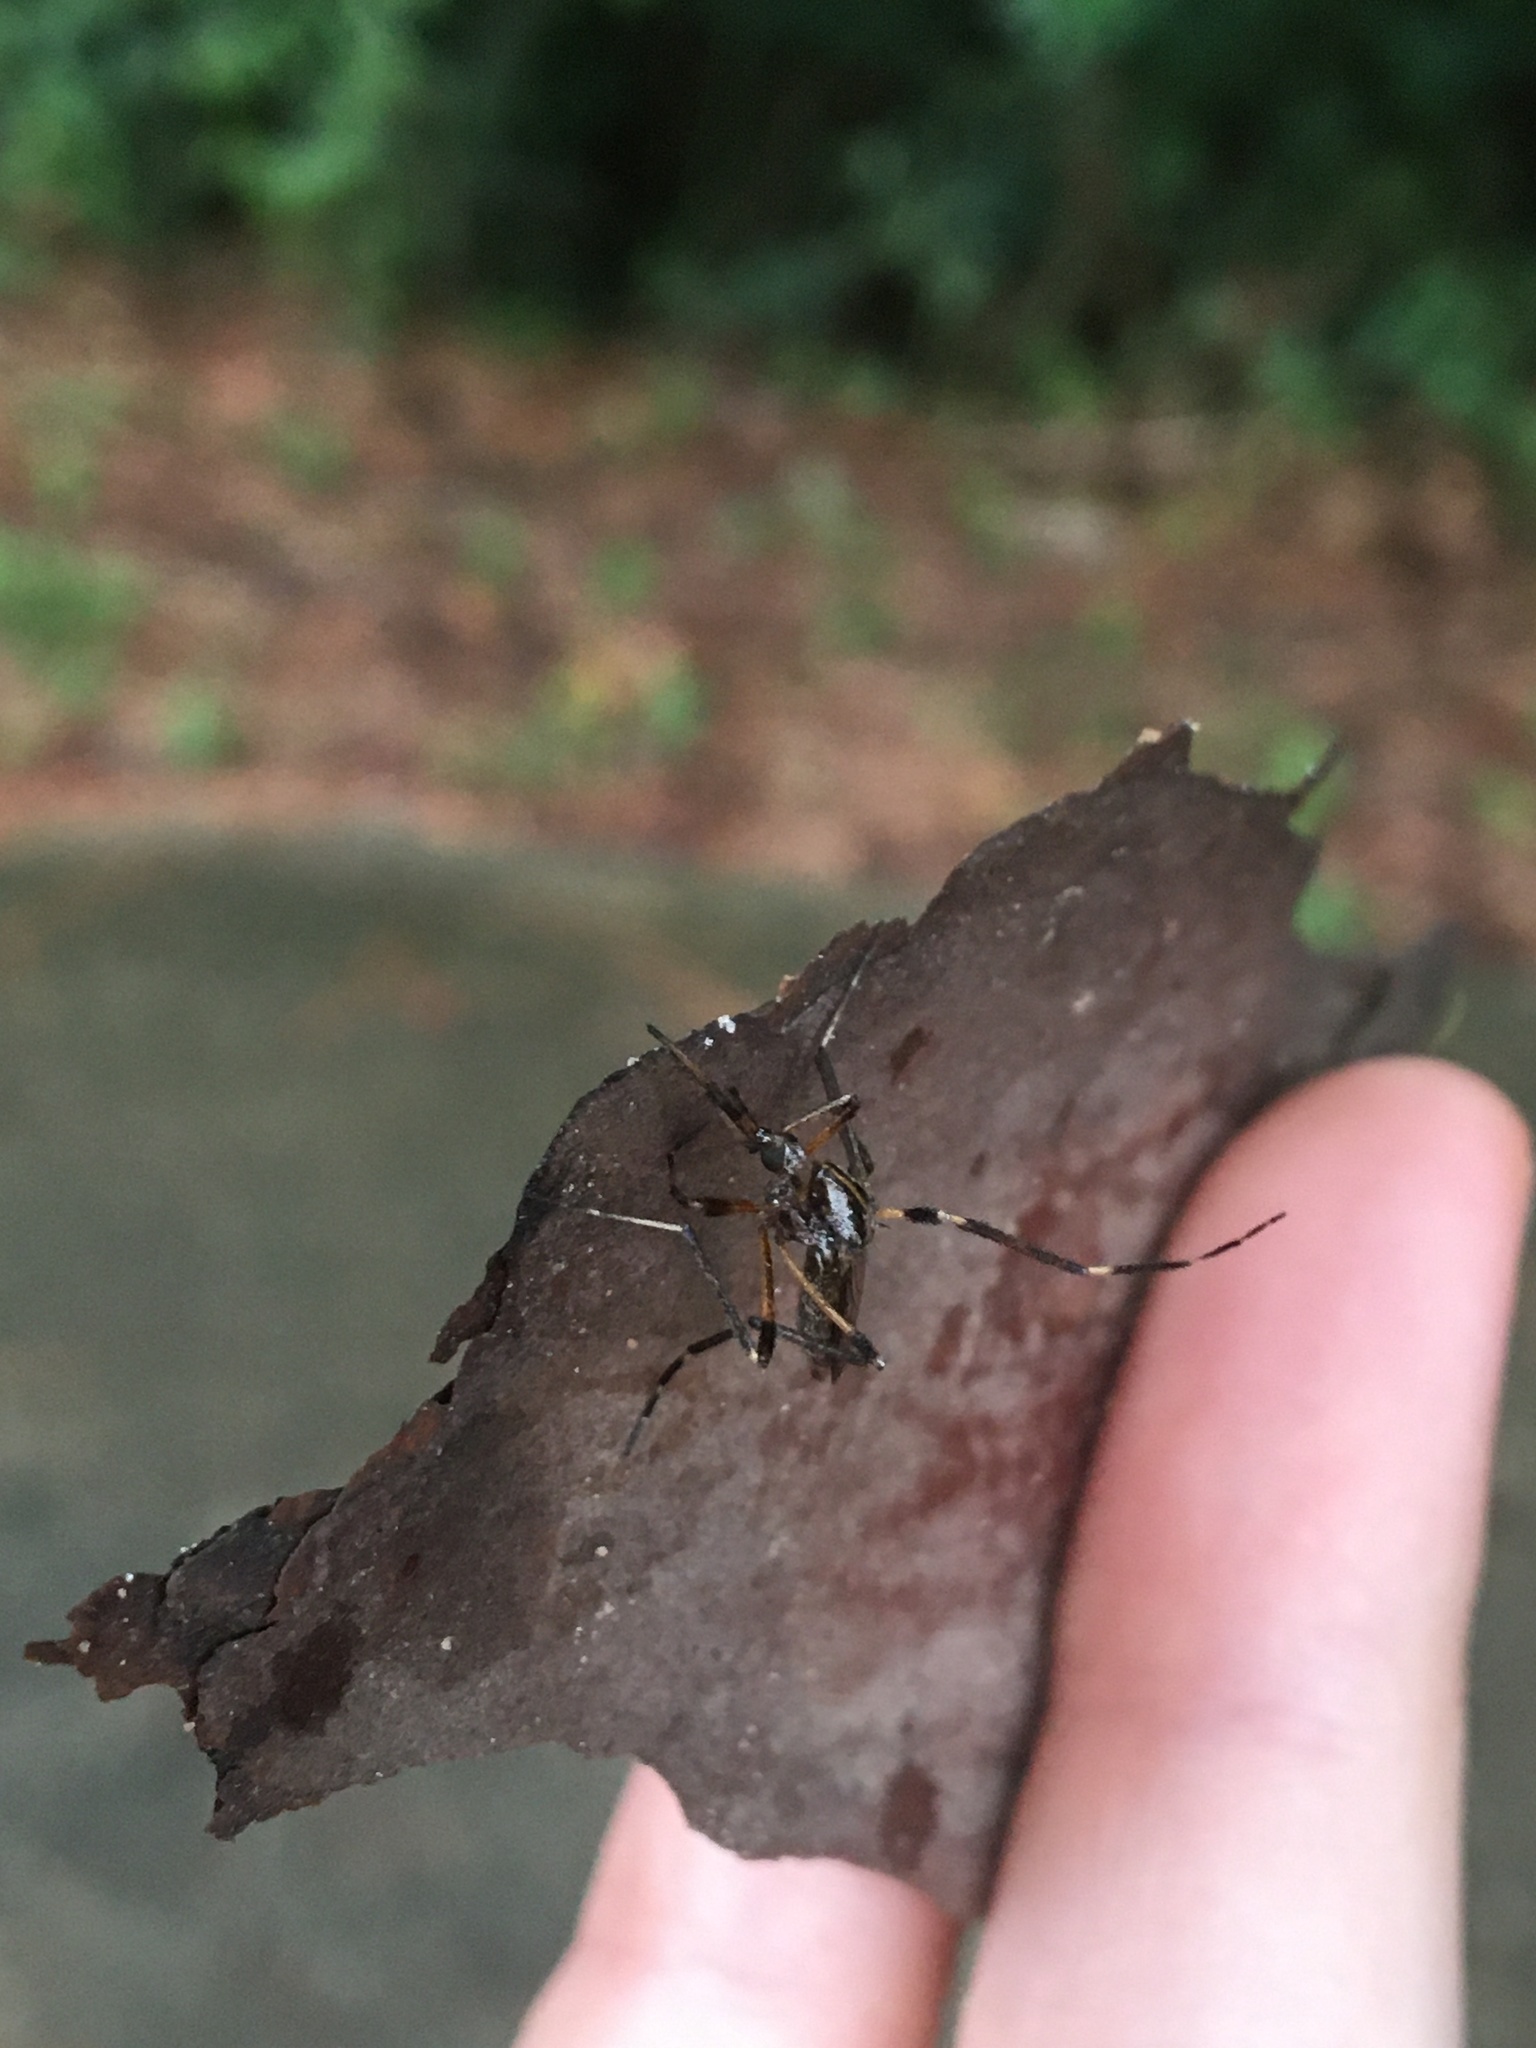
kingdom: Animalia
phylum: Arthropoda
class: Insecta
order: Diptera
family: Culicidae
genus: Psorophora
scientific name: Psorophora ciliata
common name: Gallinipper
